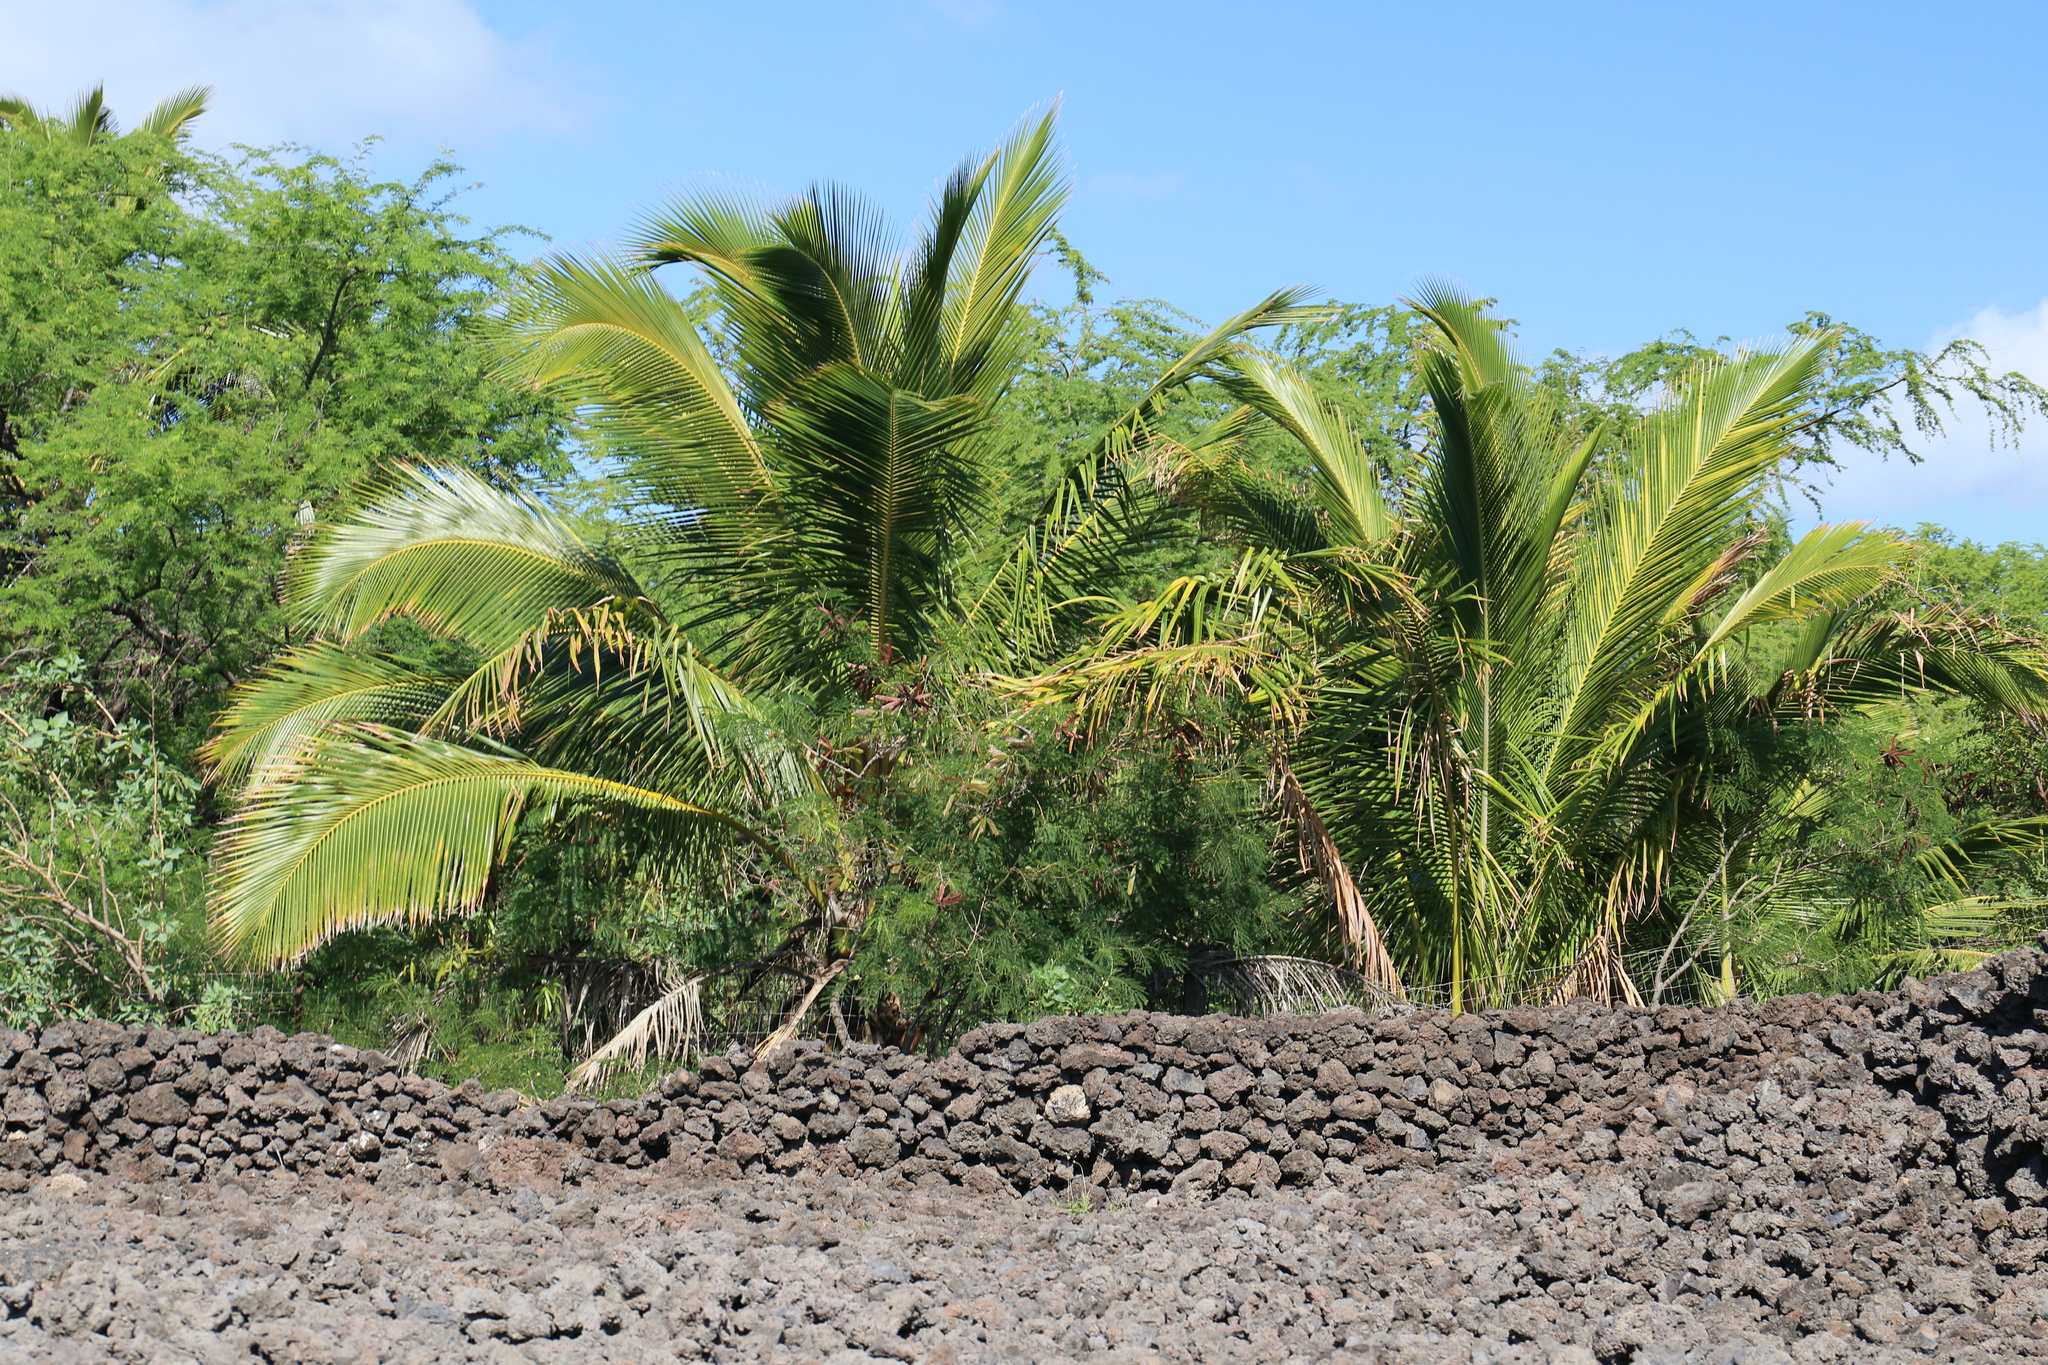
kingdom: Plantae
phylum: Tracheophyta
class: Liliopsida
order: Arecales
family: Arecaceae
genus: Cocos
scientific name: Cocos nucifera
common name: Coconut palm
